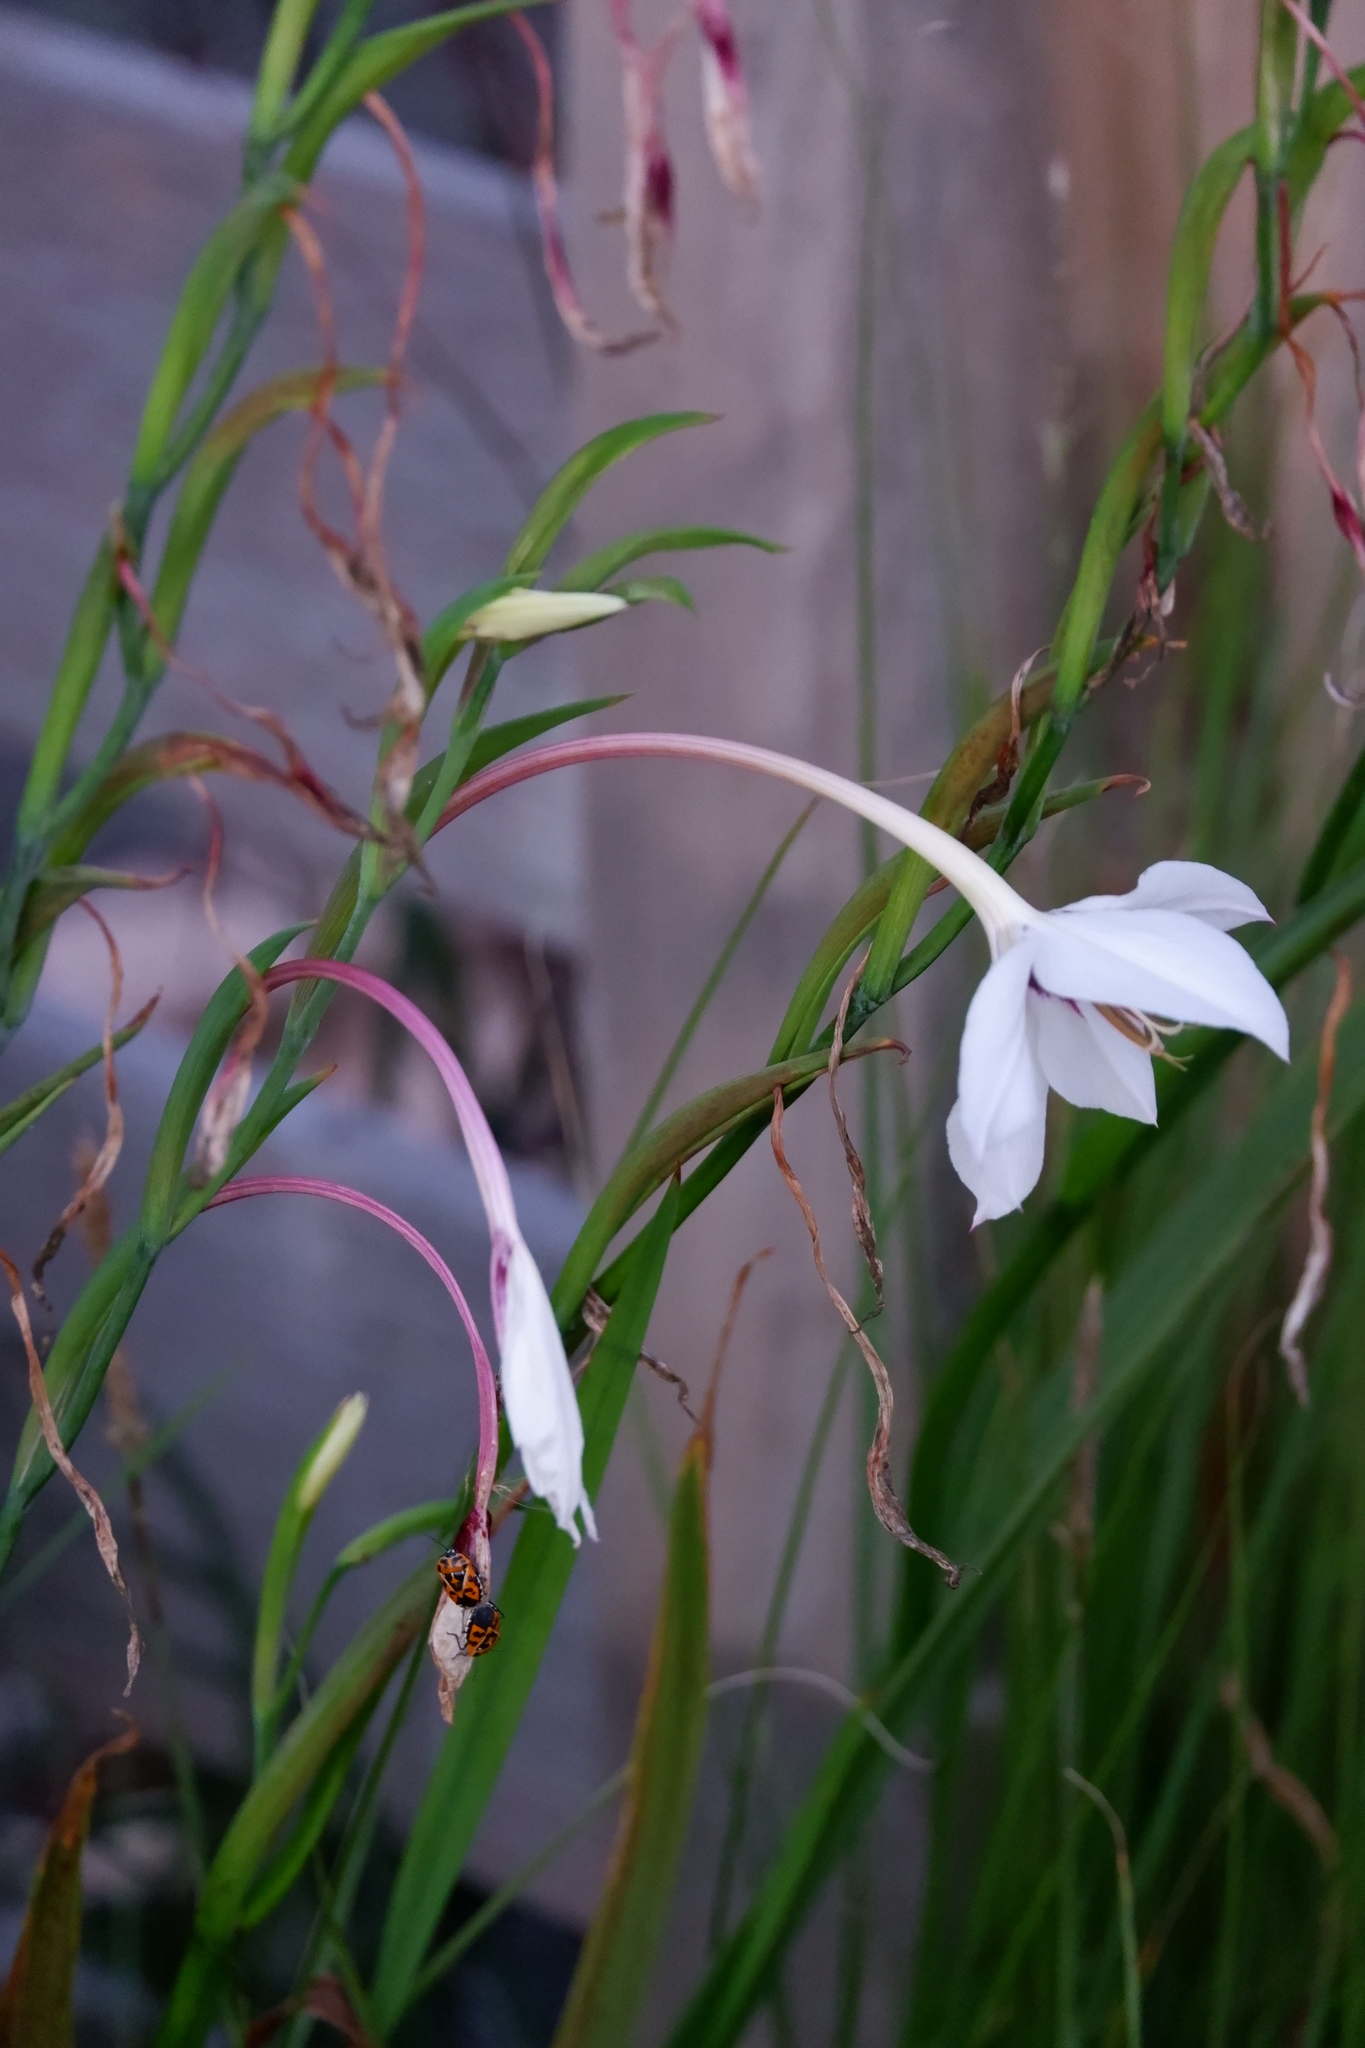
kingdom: Animalia
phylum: Arthropoda
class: Insecta
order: Hemiptera
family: Pentatomidae
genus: Murgantia
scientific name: Murgantia histrionica
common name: Harlequin bug
